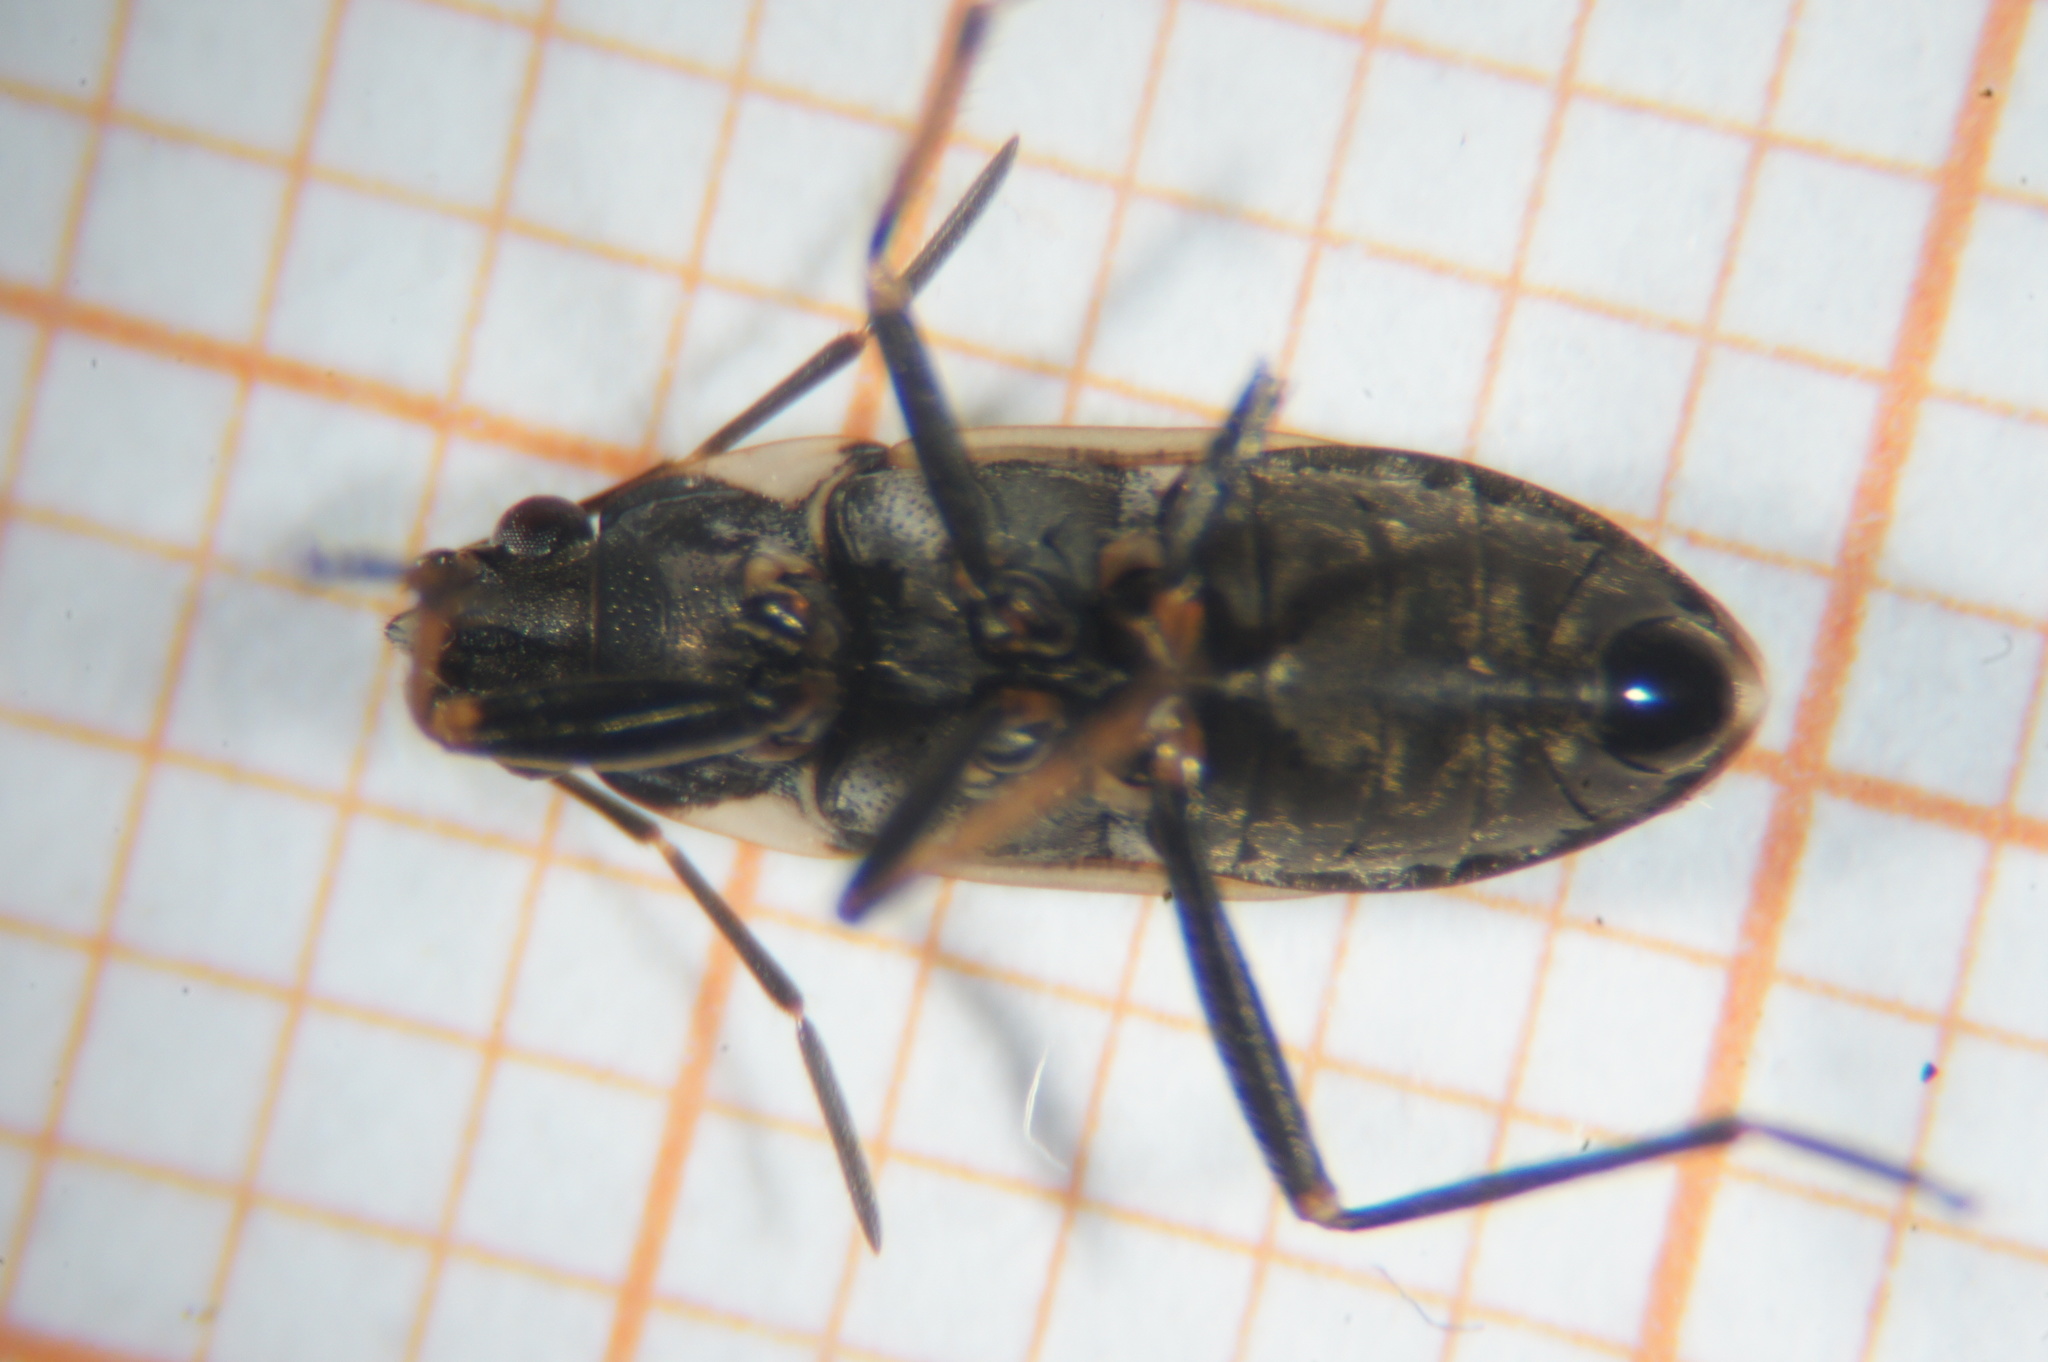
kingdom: Animalia
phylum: Arthropoda
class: Insecta
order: Hemiptera
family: Rhyparochromidae
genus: Rhyparochromus
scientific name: Rhyparochromus vulgaris
